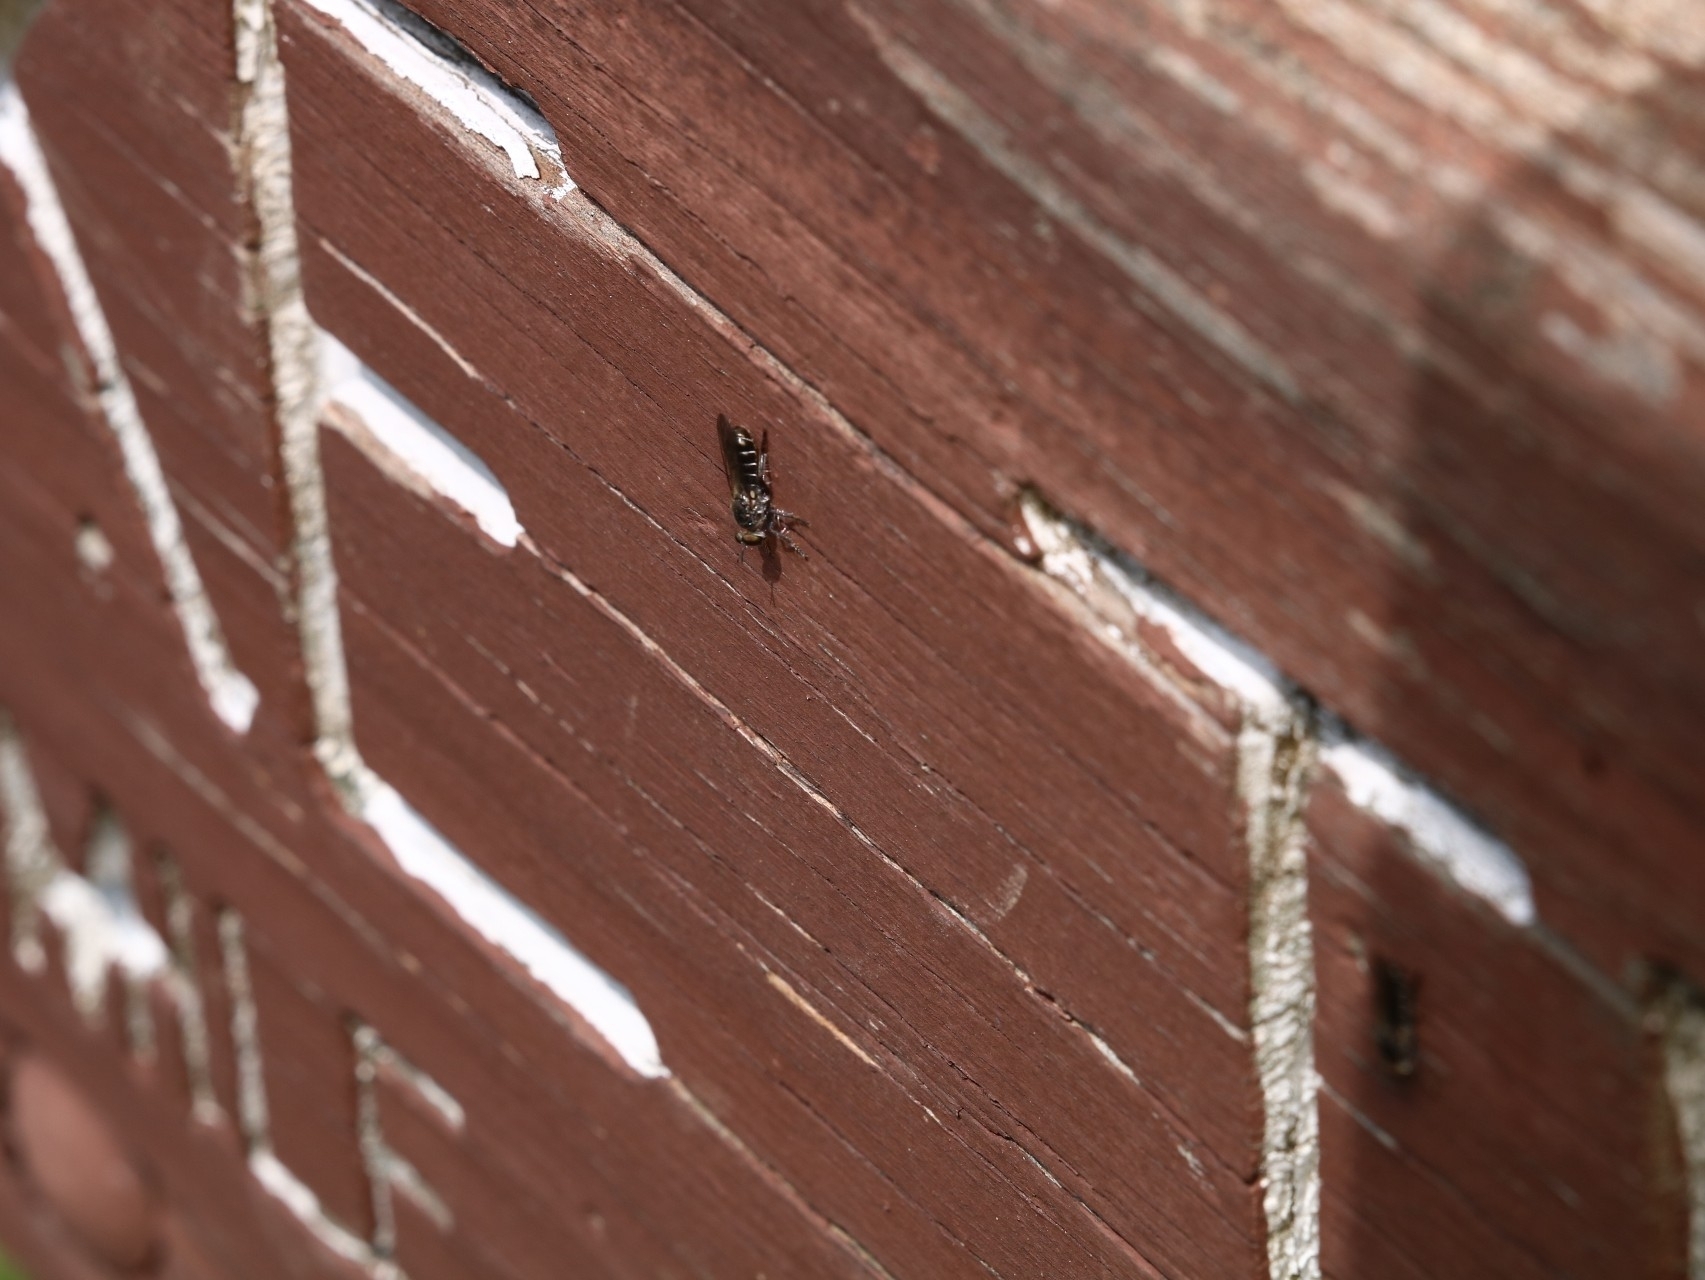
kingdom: Animalia
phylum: Arthropoda
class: Insecta
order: Diptera
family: Asilidae
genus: Atomosia
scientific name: Atomosia puella
